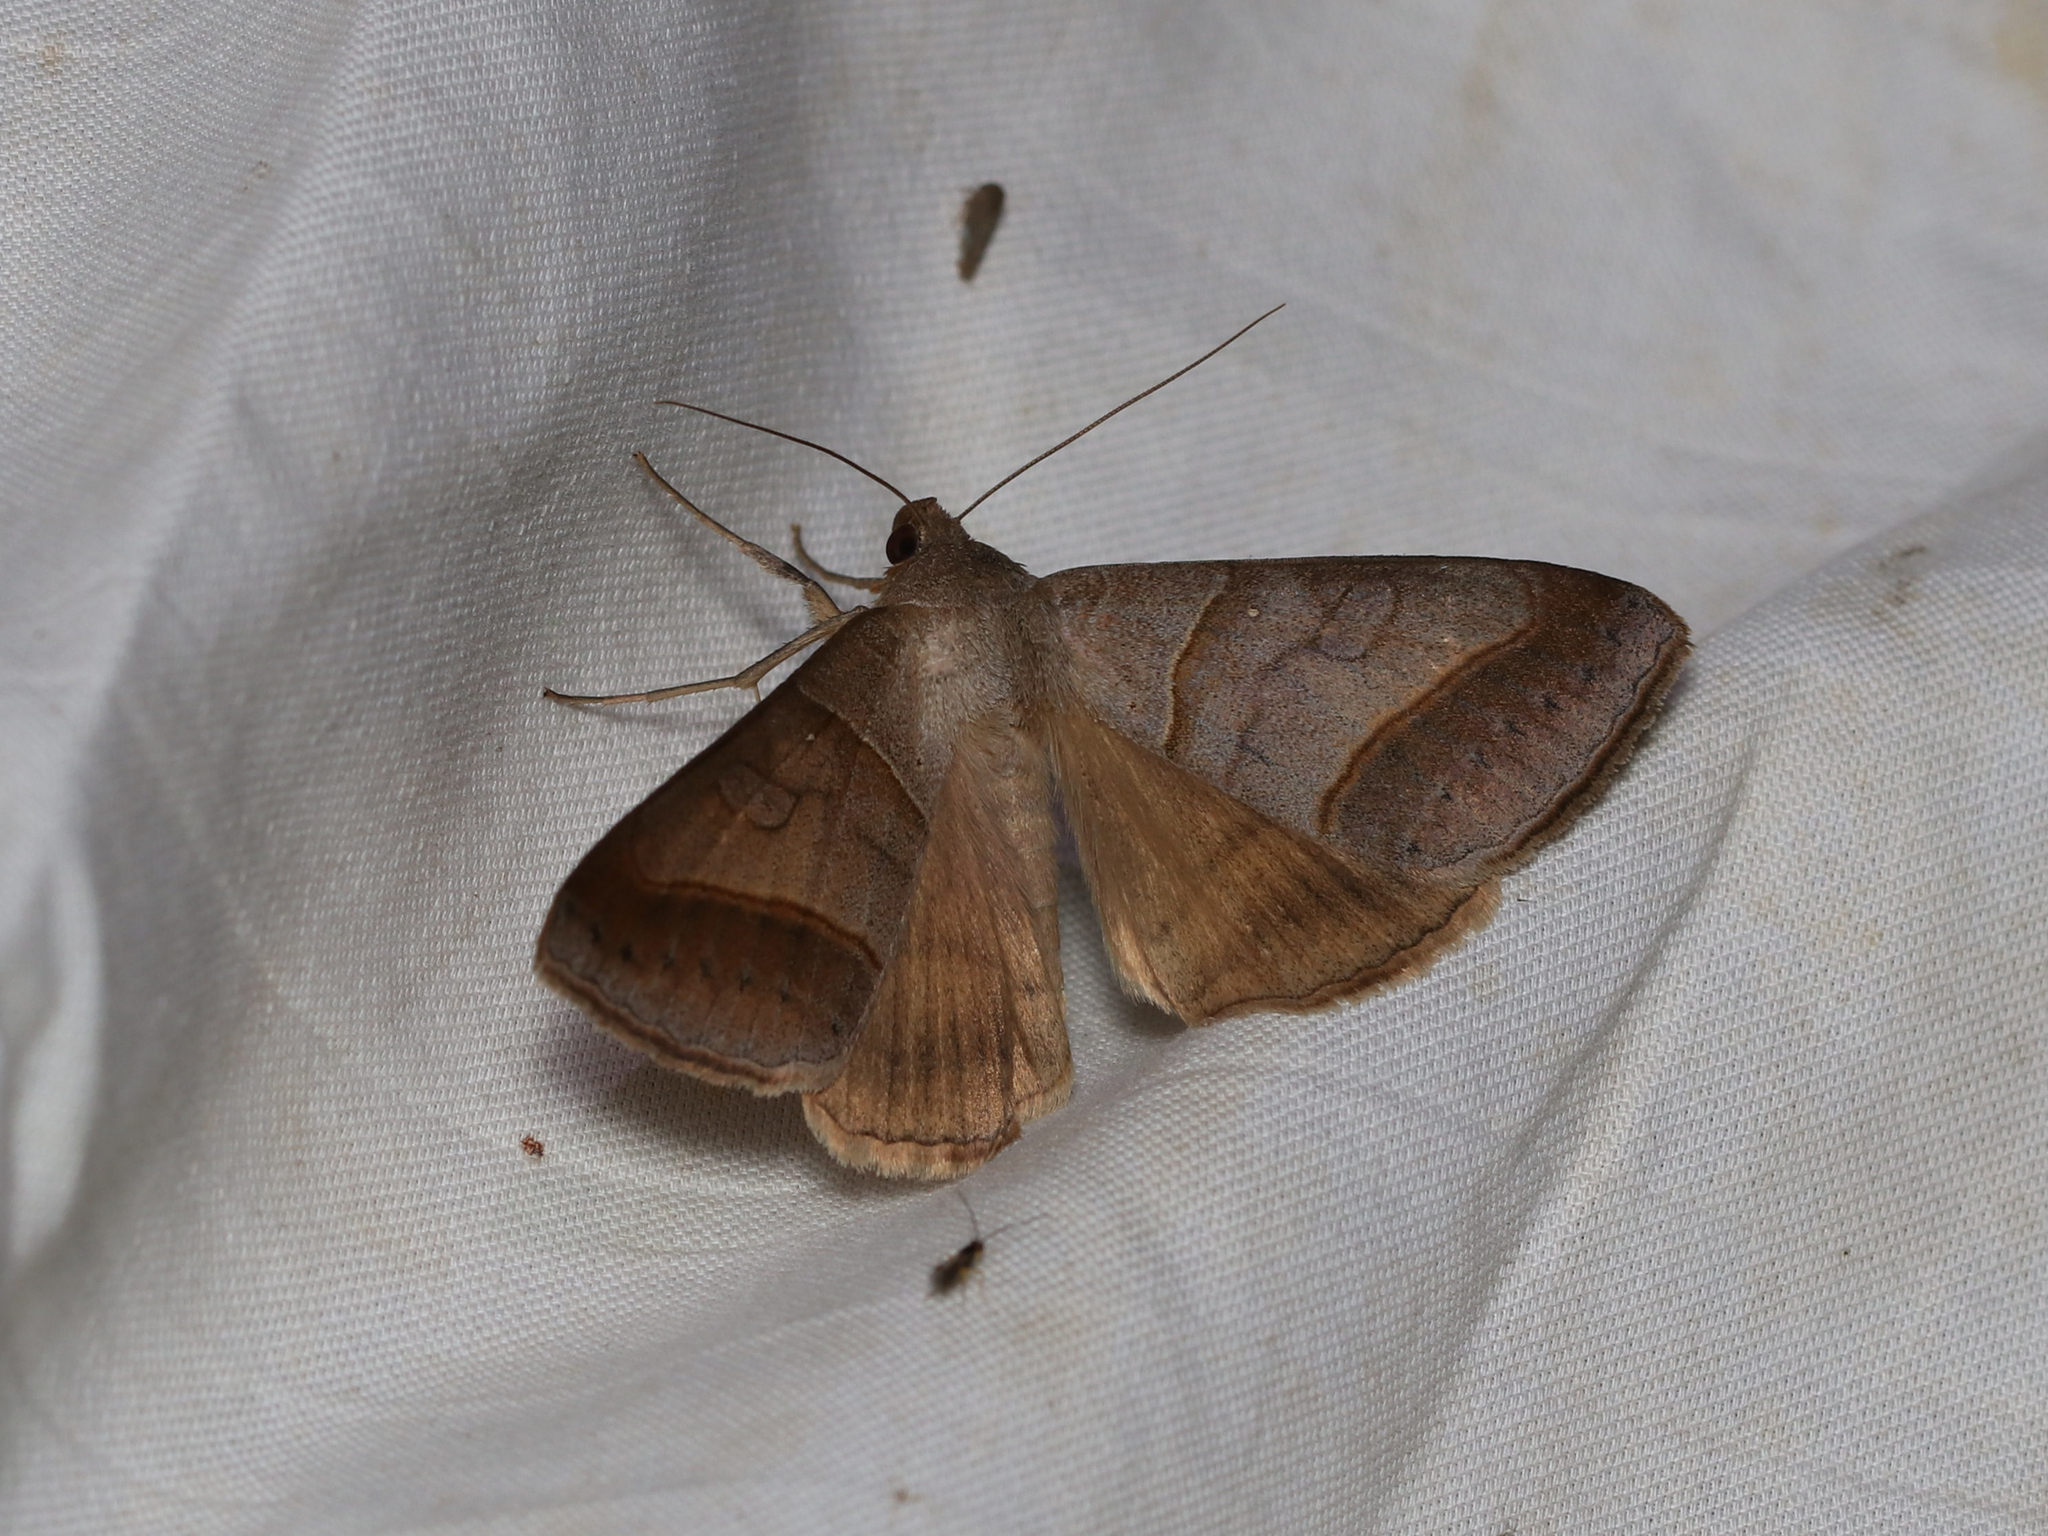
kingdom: Animalia
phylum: Arthropoda
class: Insecta
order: Lepidoptera
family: Erebidae
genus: Mocis
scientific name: Mocis texana
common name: Texas mocis moth
